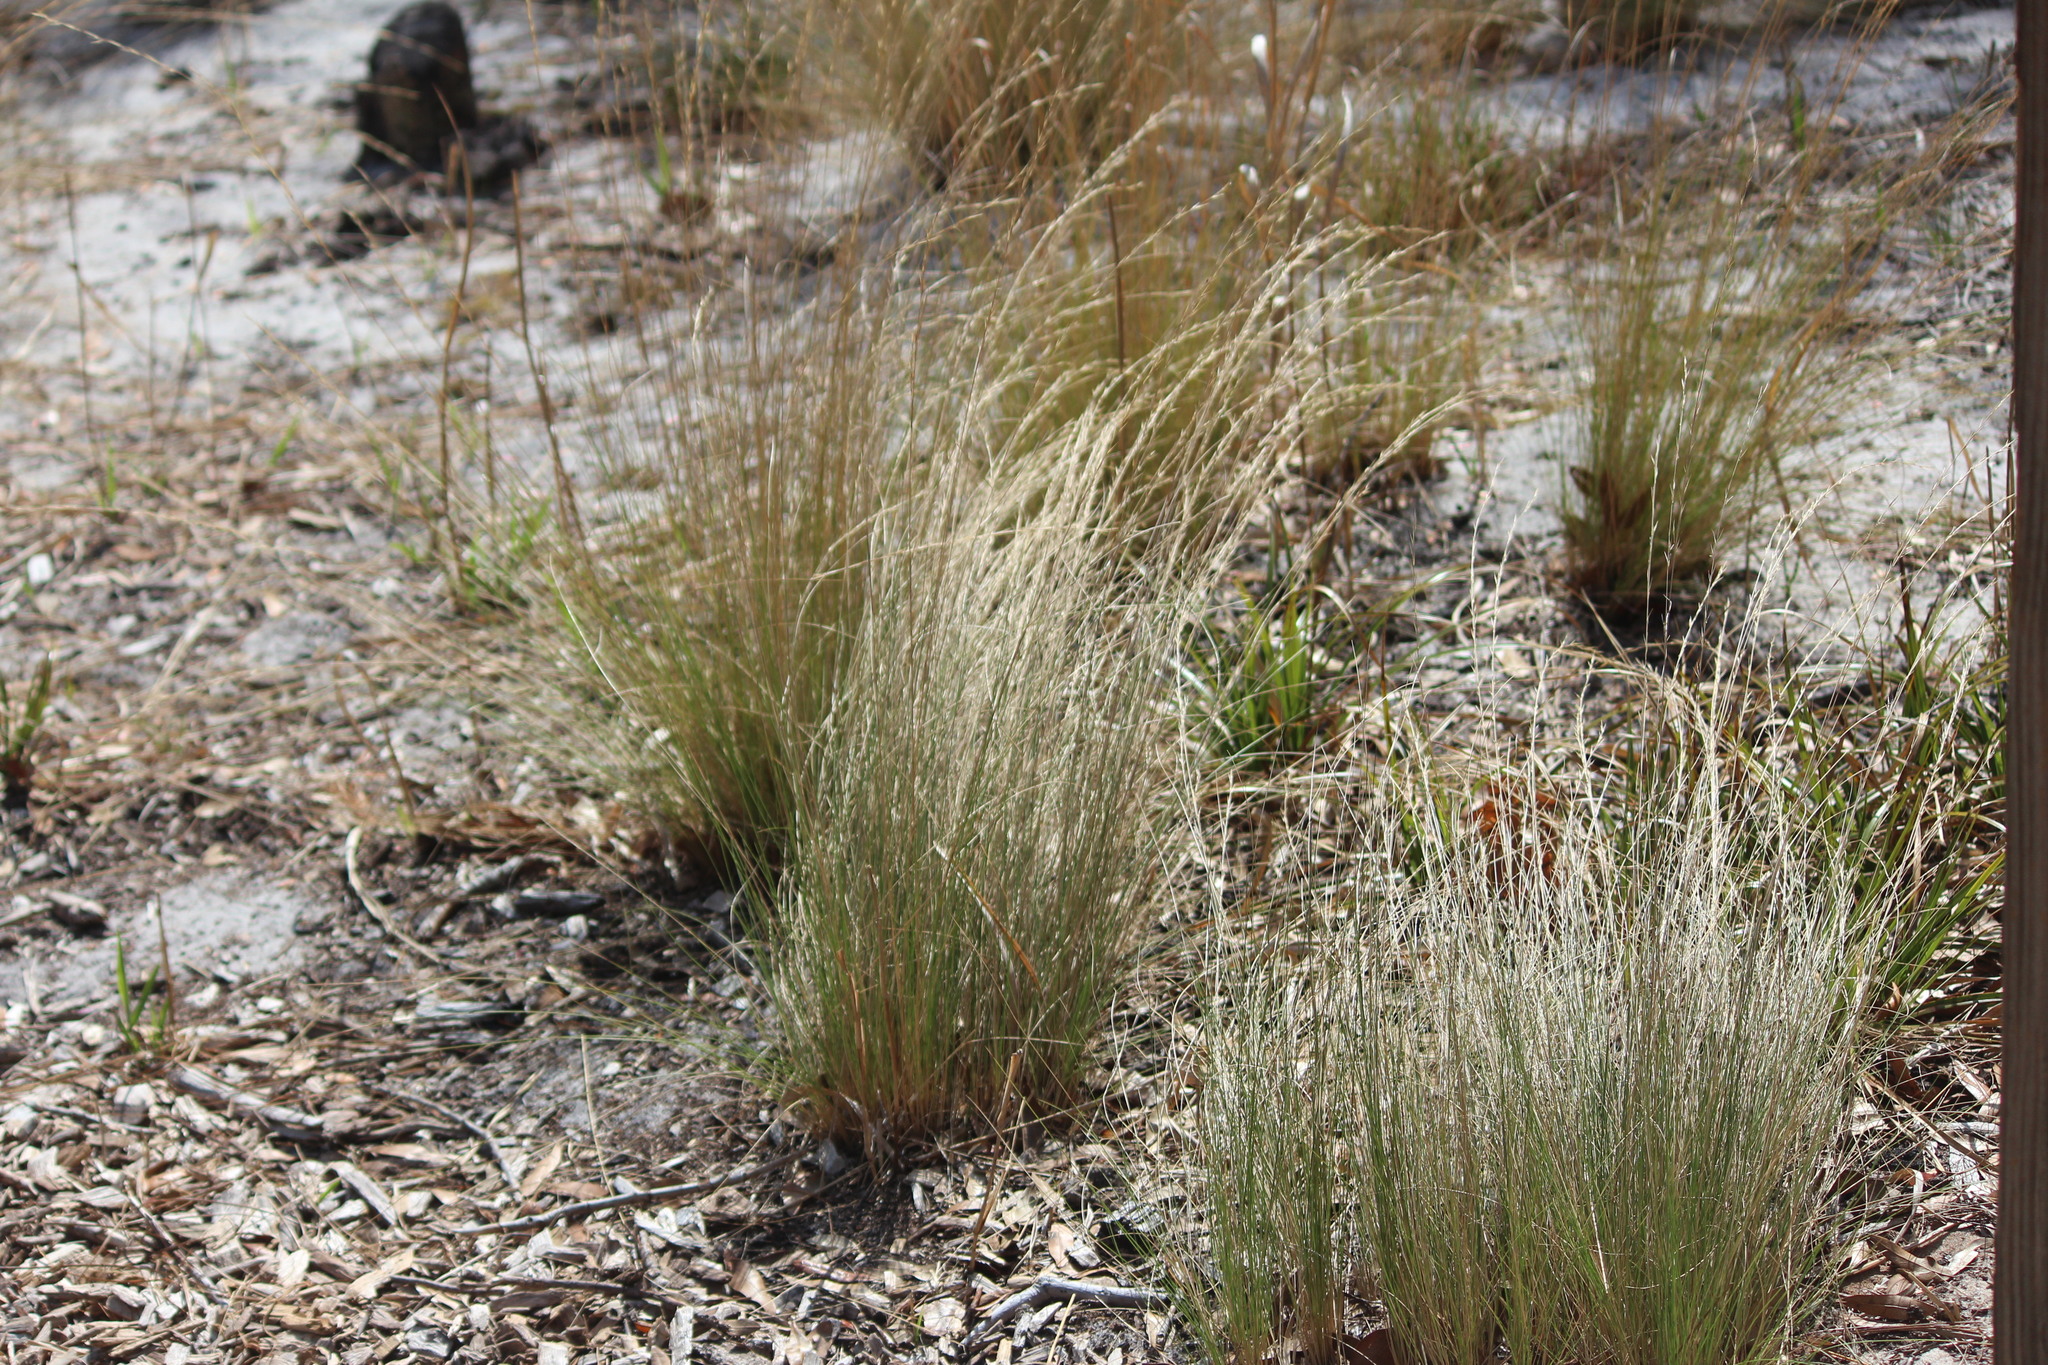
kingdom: Plantae
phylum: Tracheophyta
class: Liliopsida
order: Poales
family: Poaceae
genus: Aristida
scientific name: Aristida stricta
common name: Pineland three-awn
